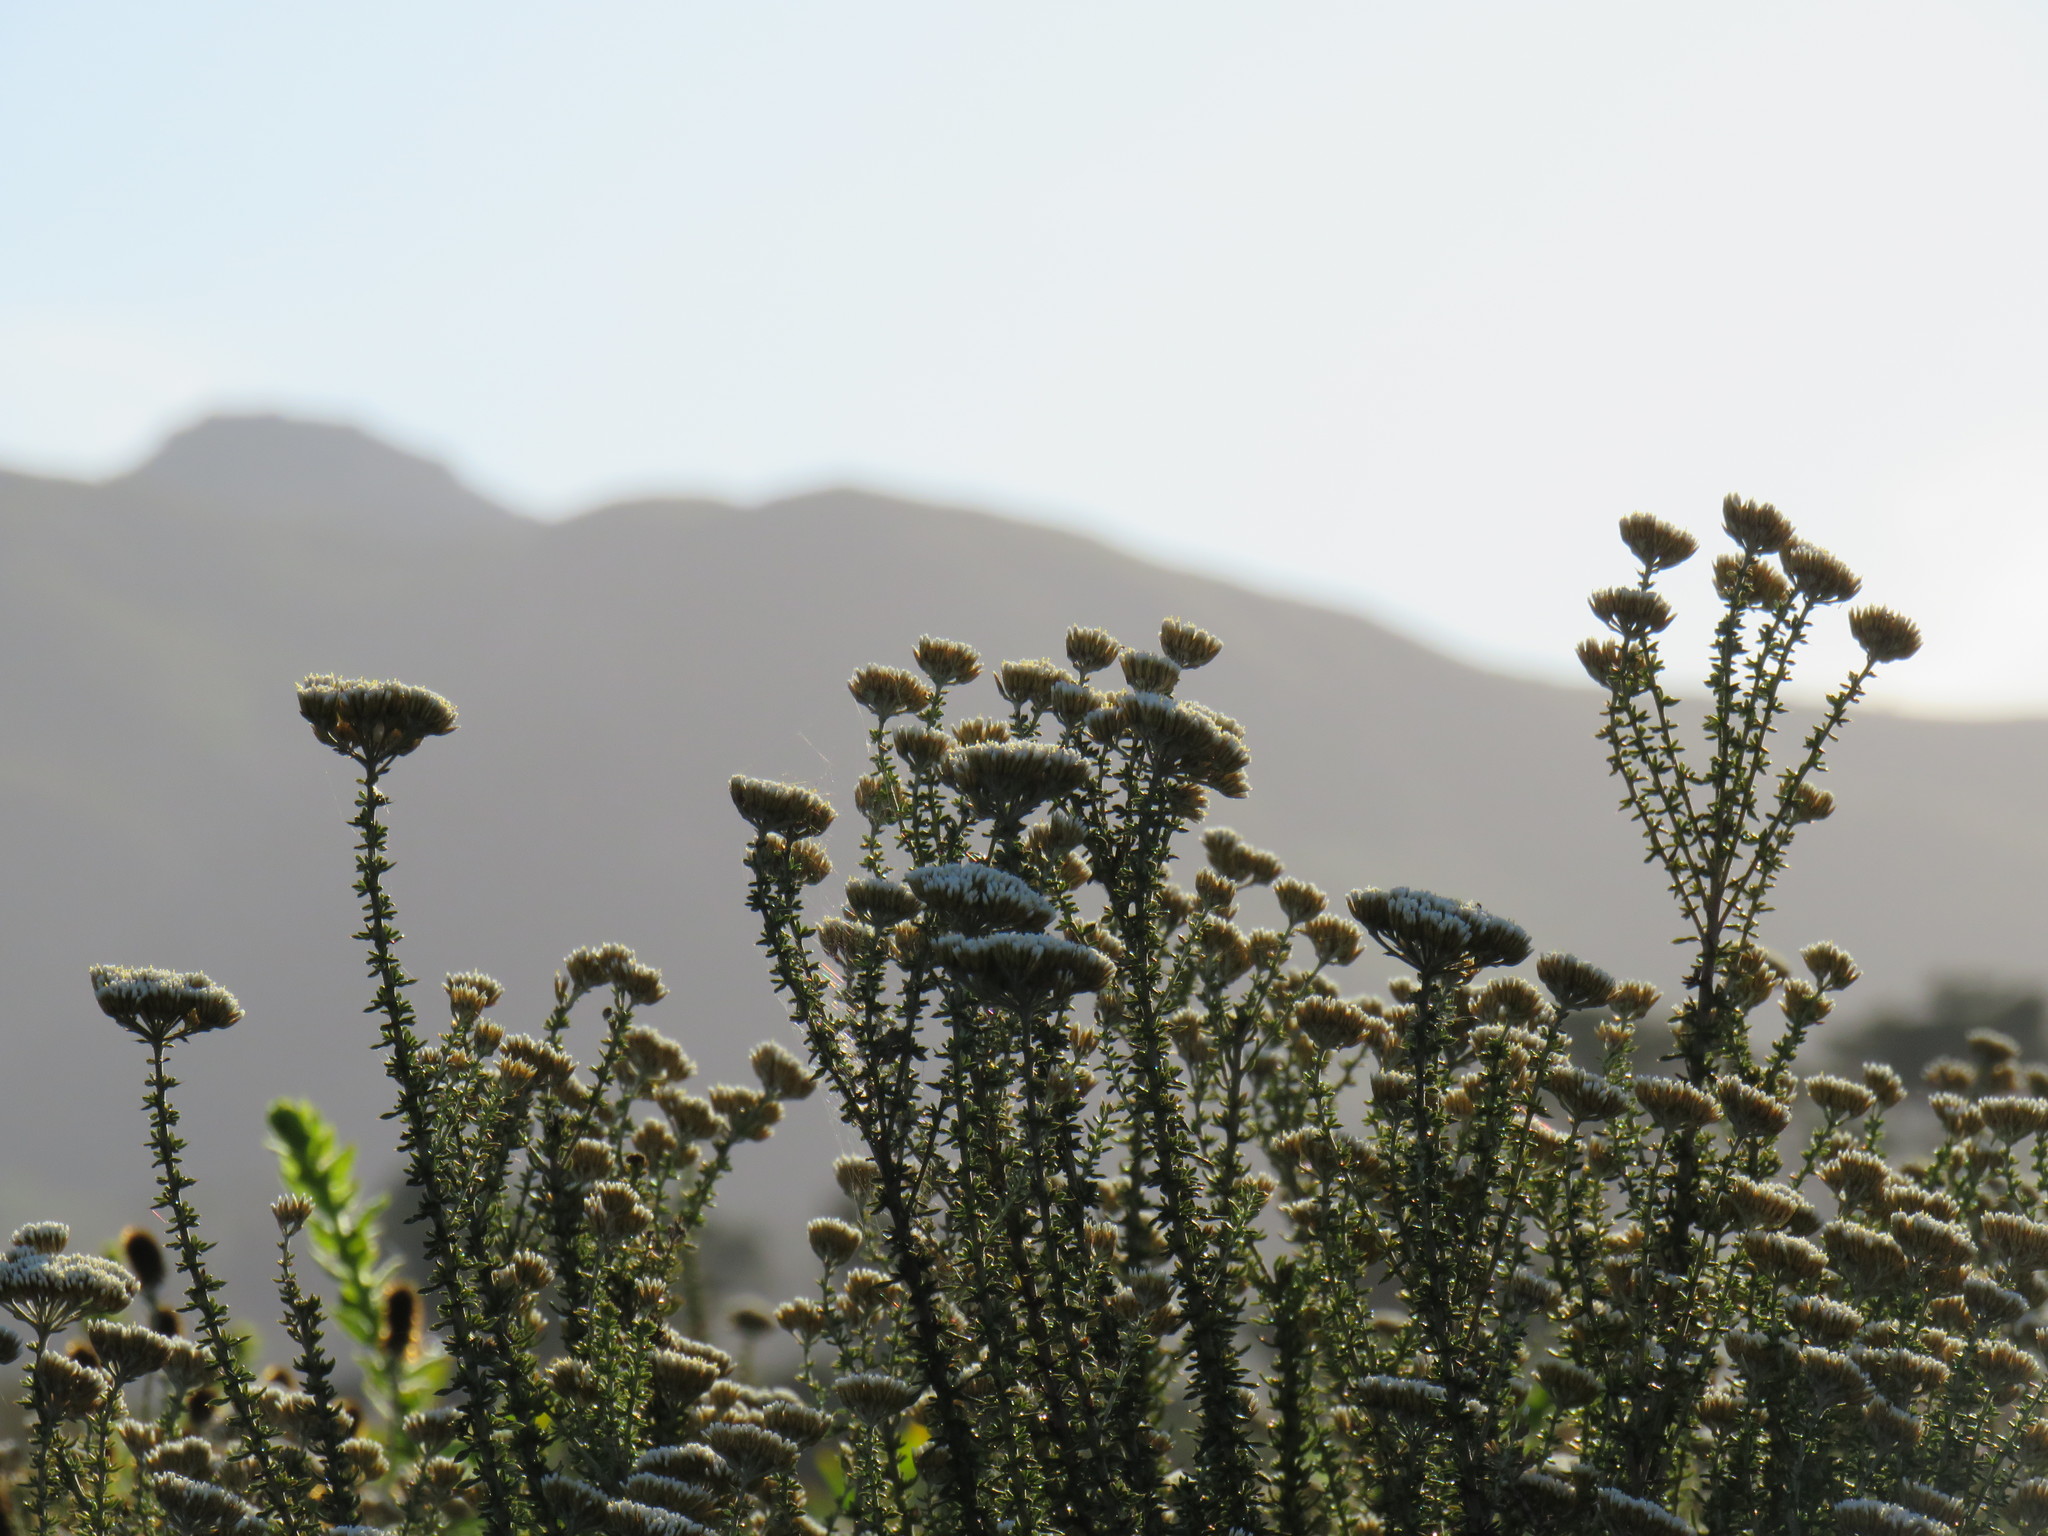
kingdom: Plantae
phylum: Tracheophyta
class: Magnoliopsida
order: Asterales
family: Asteraceae
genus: Metalasia
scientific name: Metalasia densa
